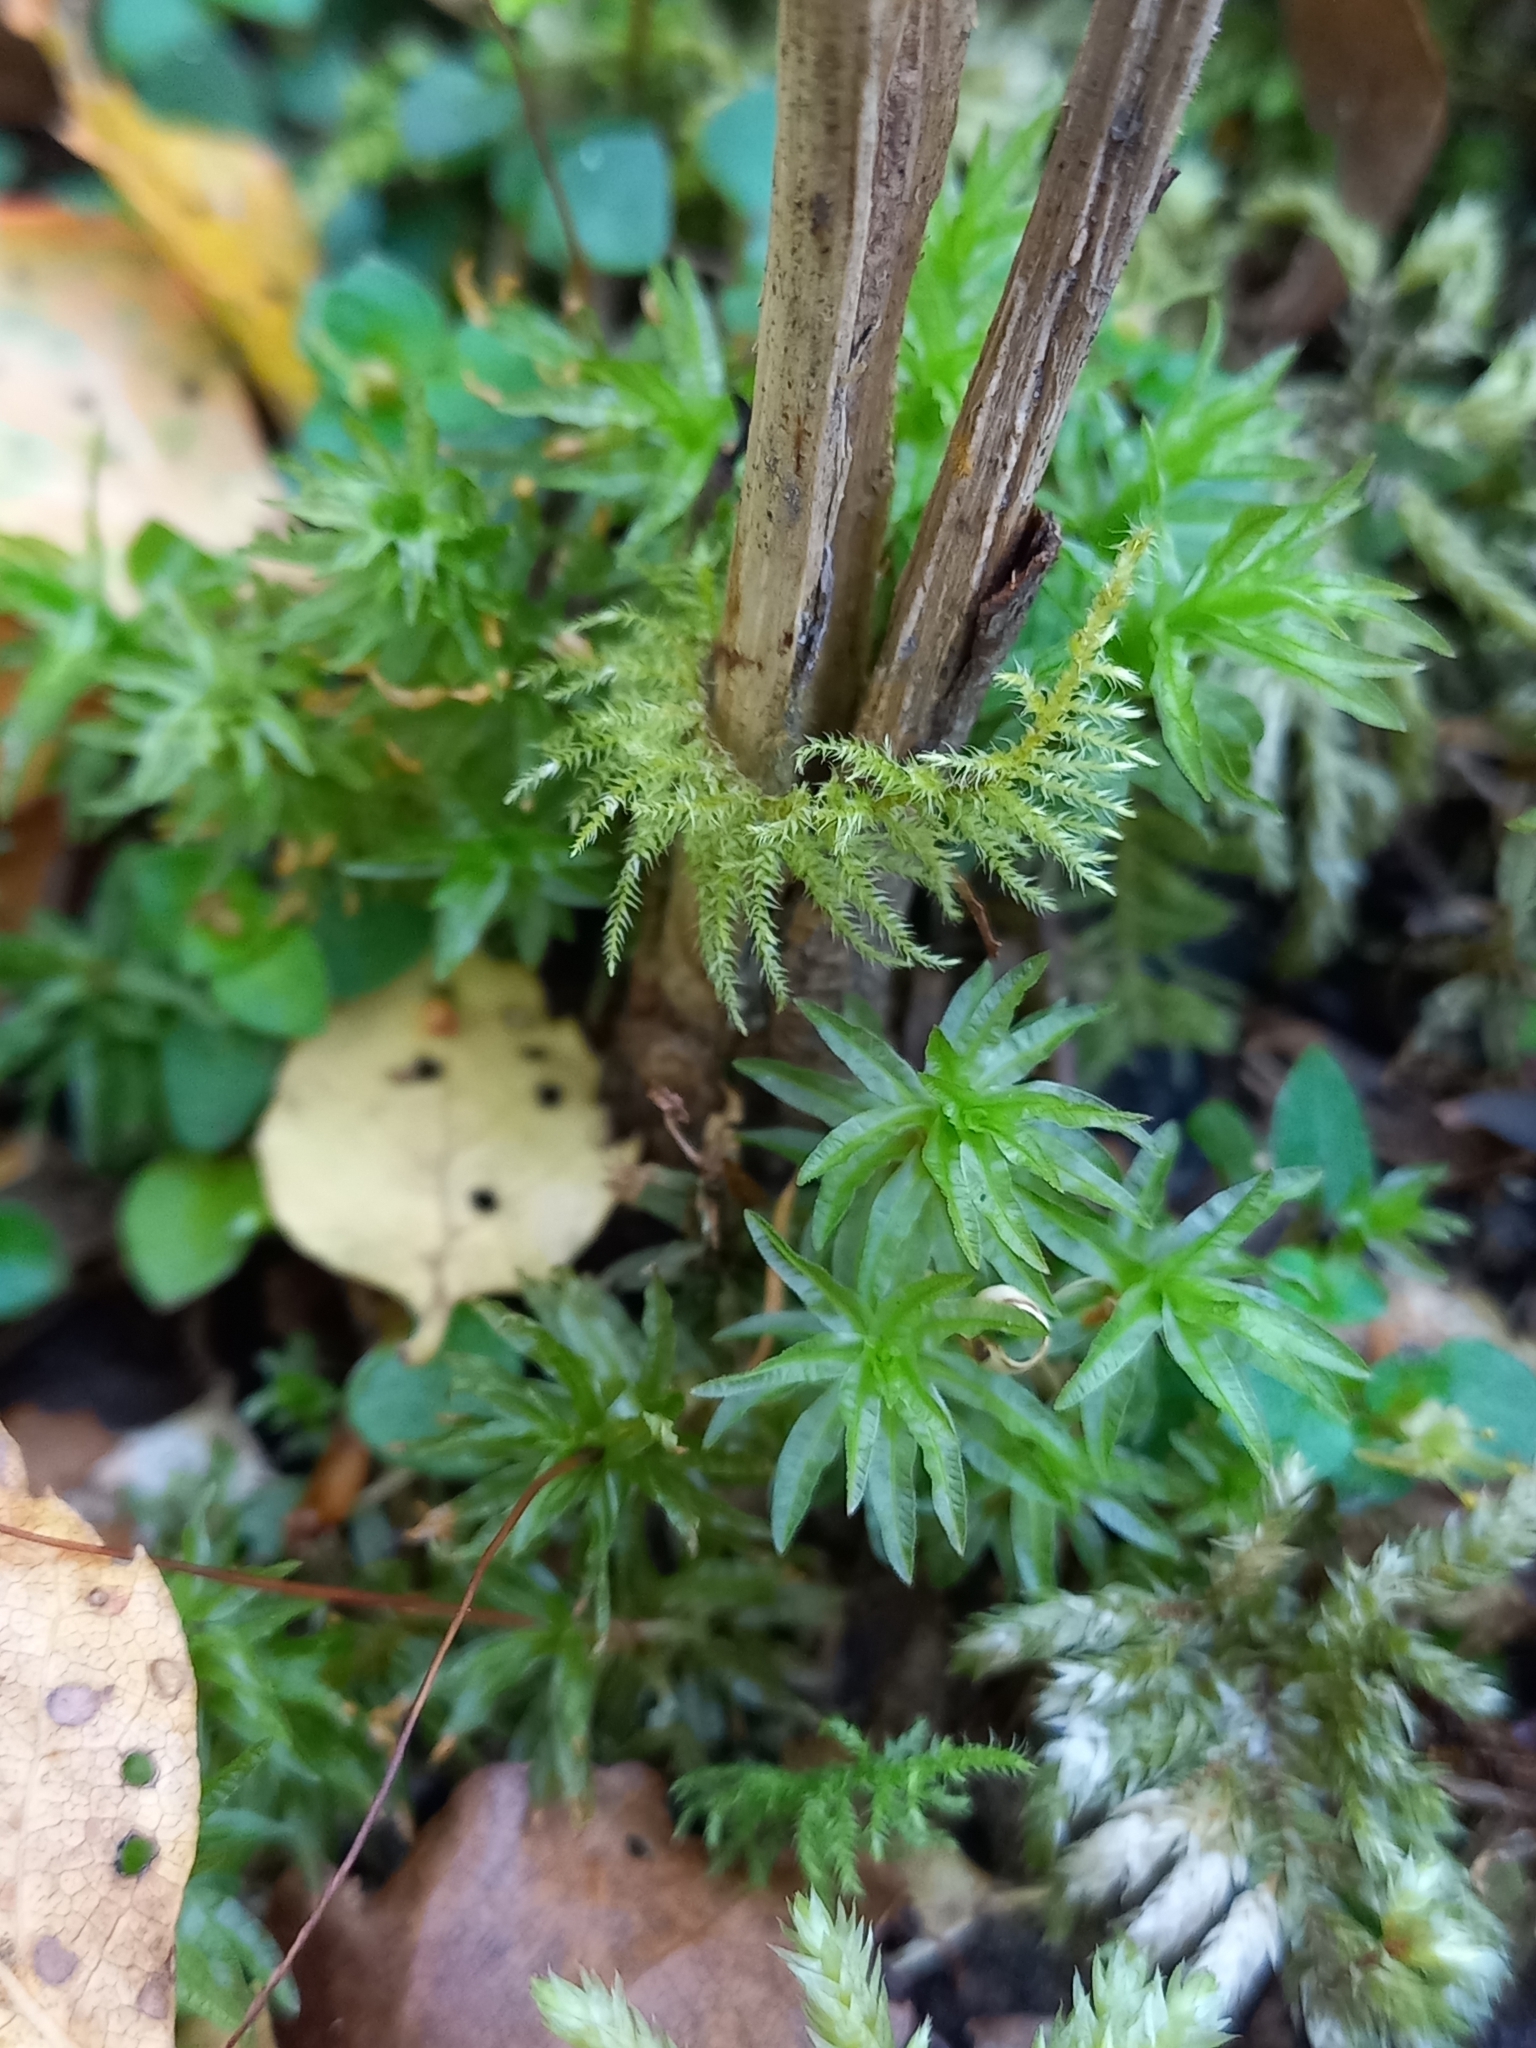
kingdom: Plantae
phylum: Bryophyta
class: Polytrichopsida
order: Polytrichales
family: Polytrichaceae
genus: Atrichum
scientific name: Atrichum androgynum
